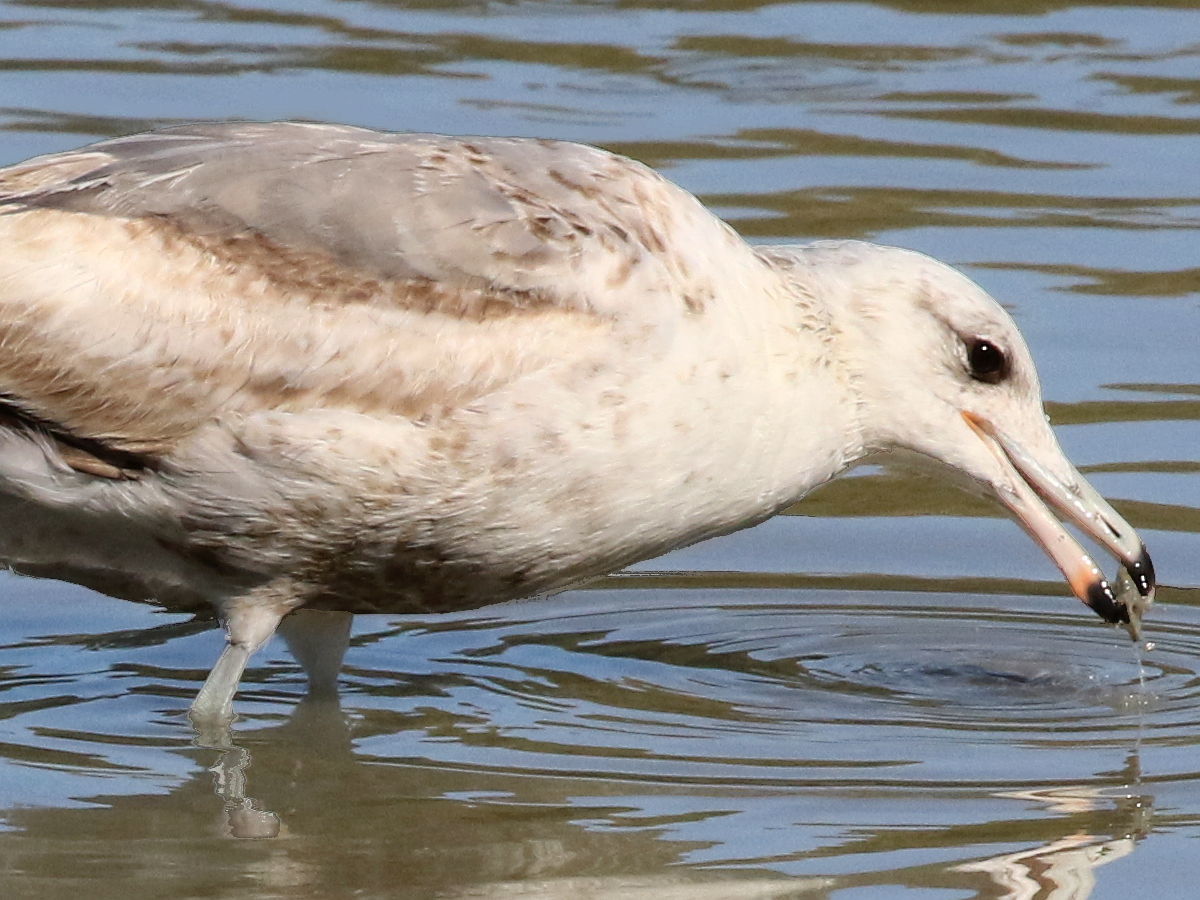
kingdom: Animalia
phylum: Chordata
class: Aves
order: Charadriiformes
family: Laridae
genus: Larus
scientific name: Larus californicus
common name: California gull
